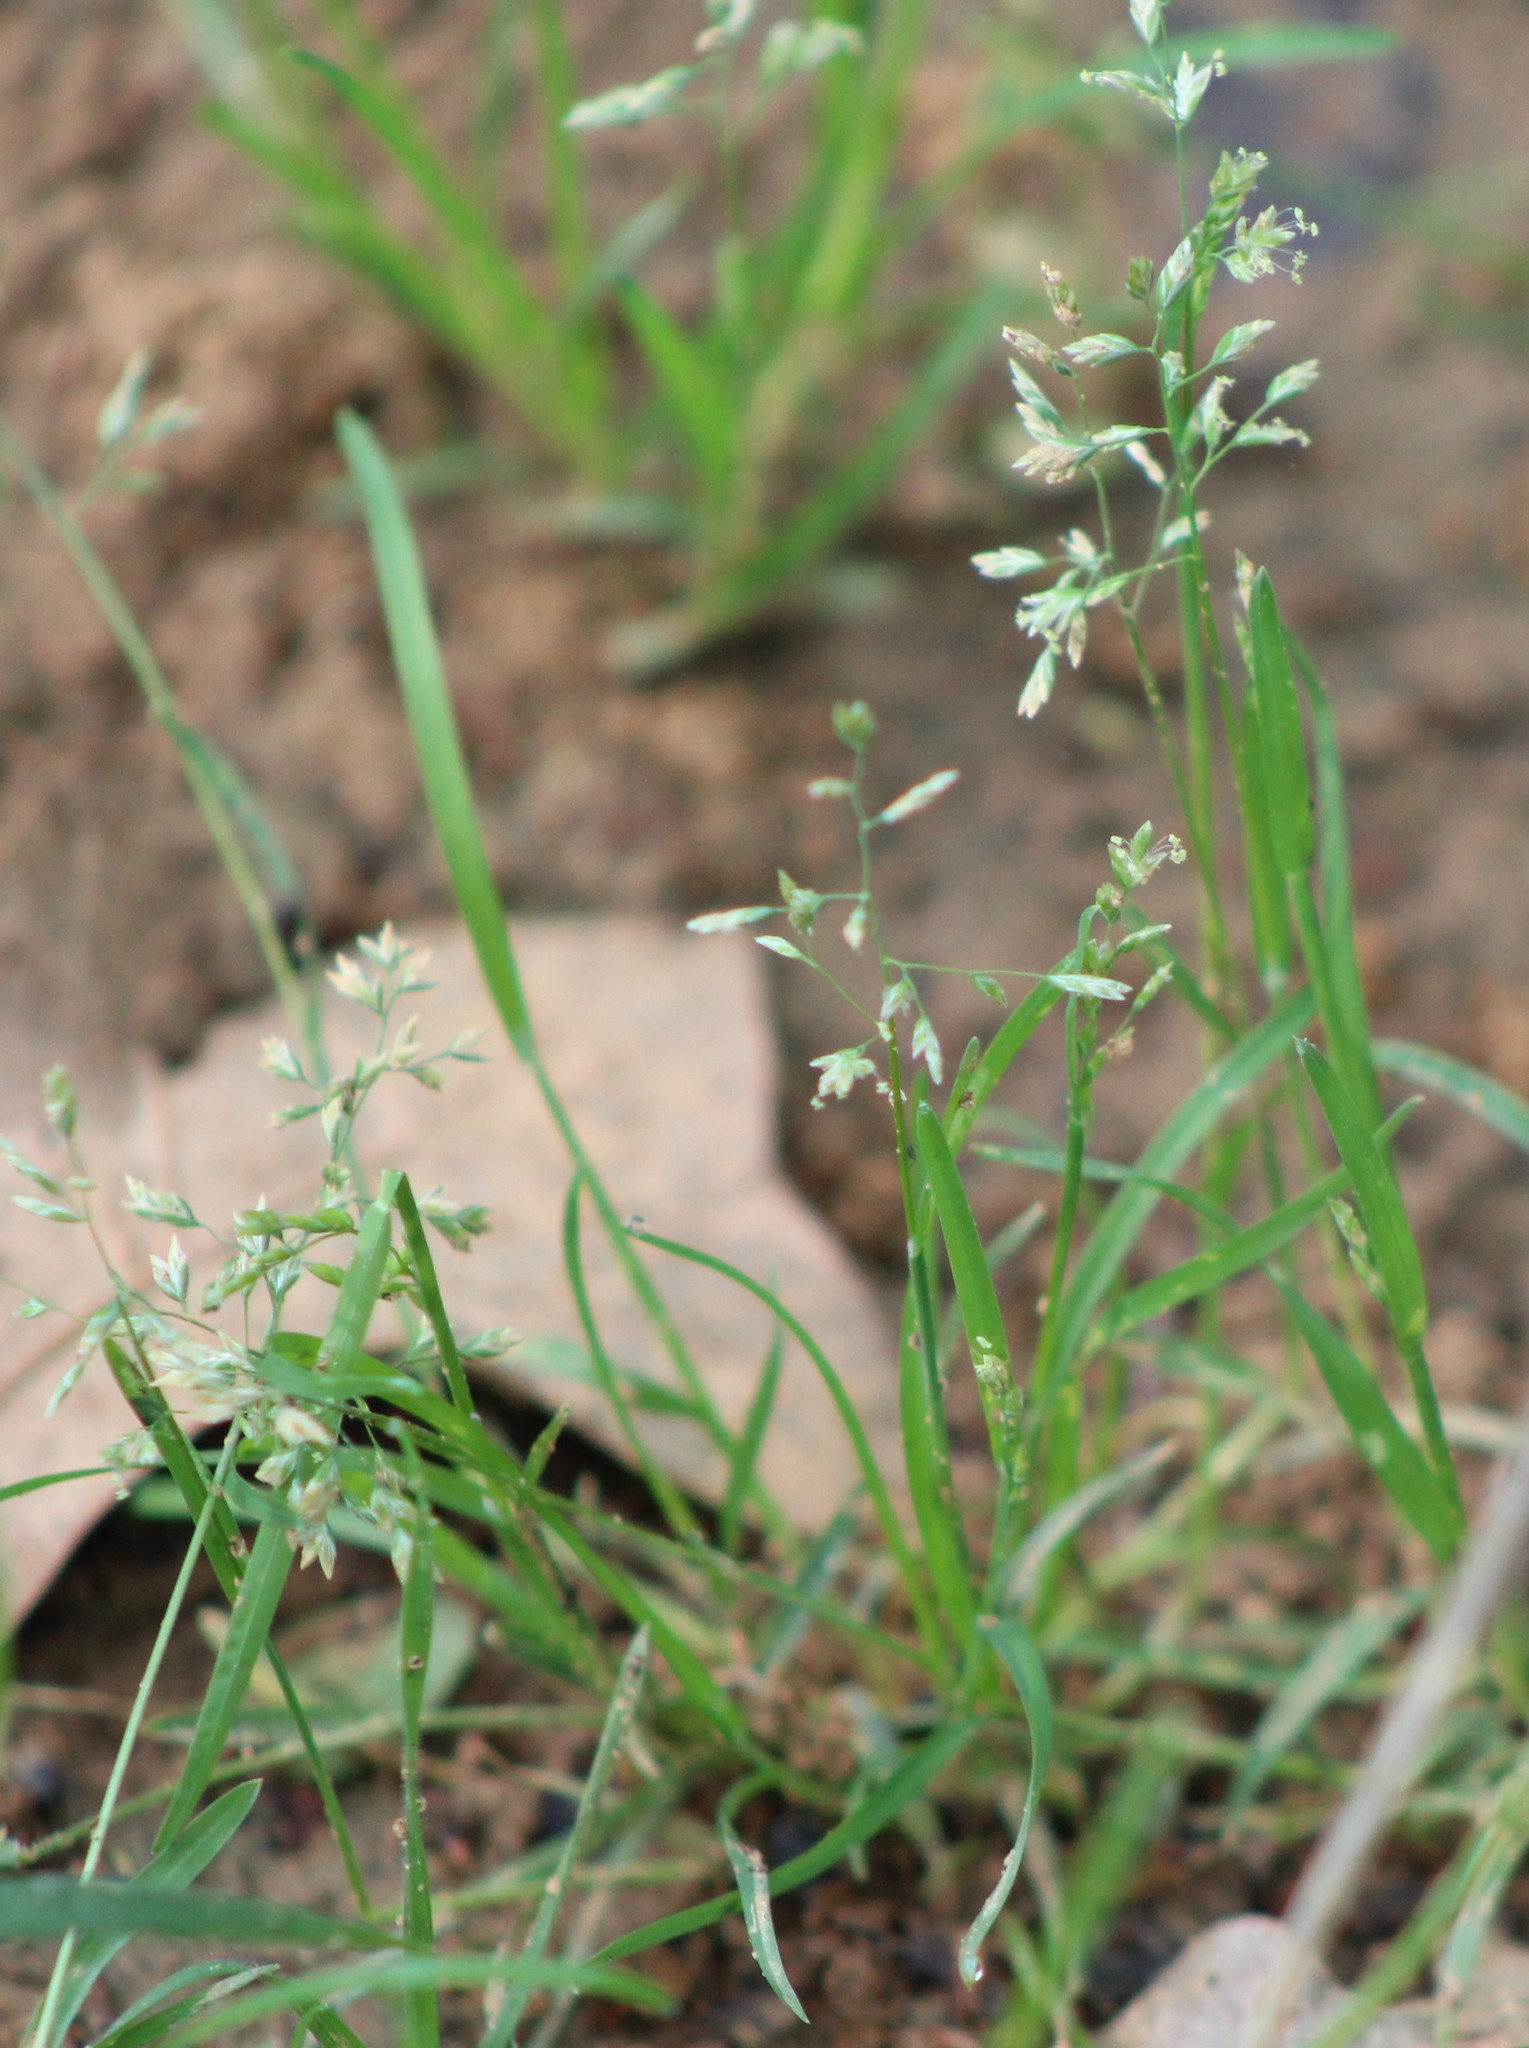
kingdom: Plantae
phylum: Tracheophyta
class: Liliopsida
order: Poales
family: Poaceae
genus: Poa
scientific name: Poa annua
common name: Annual bluegrass
